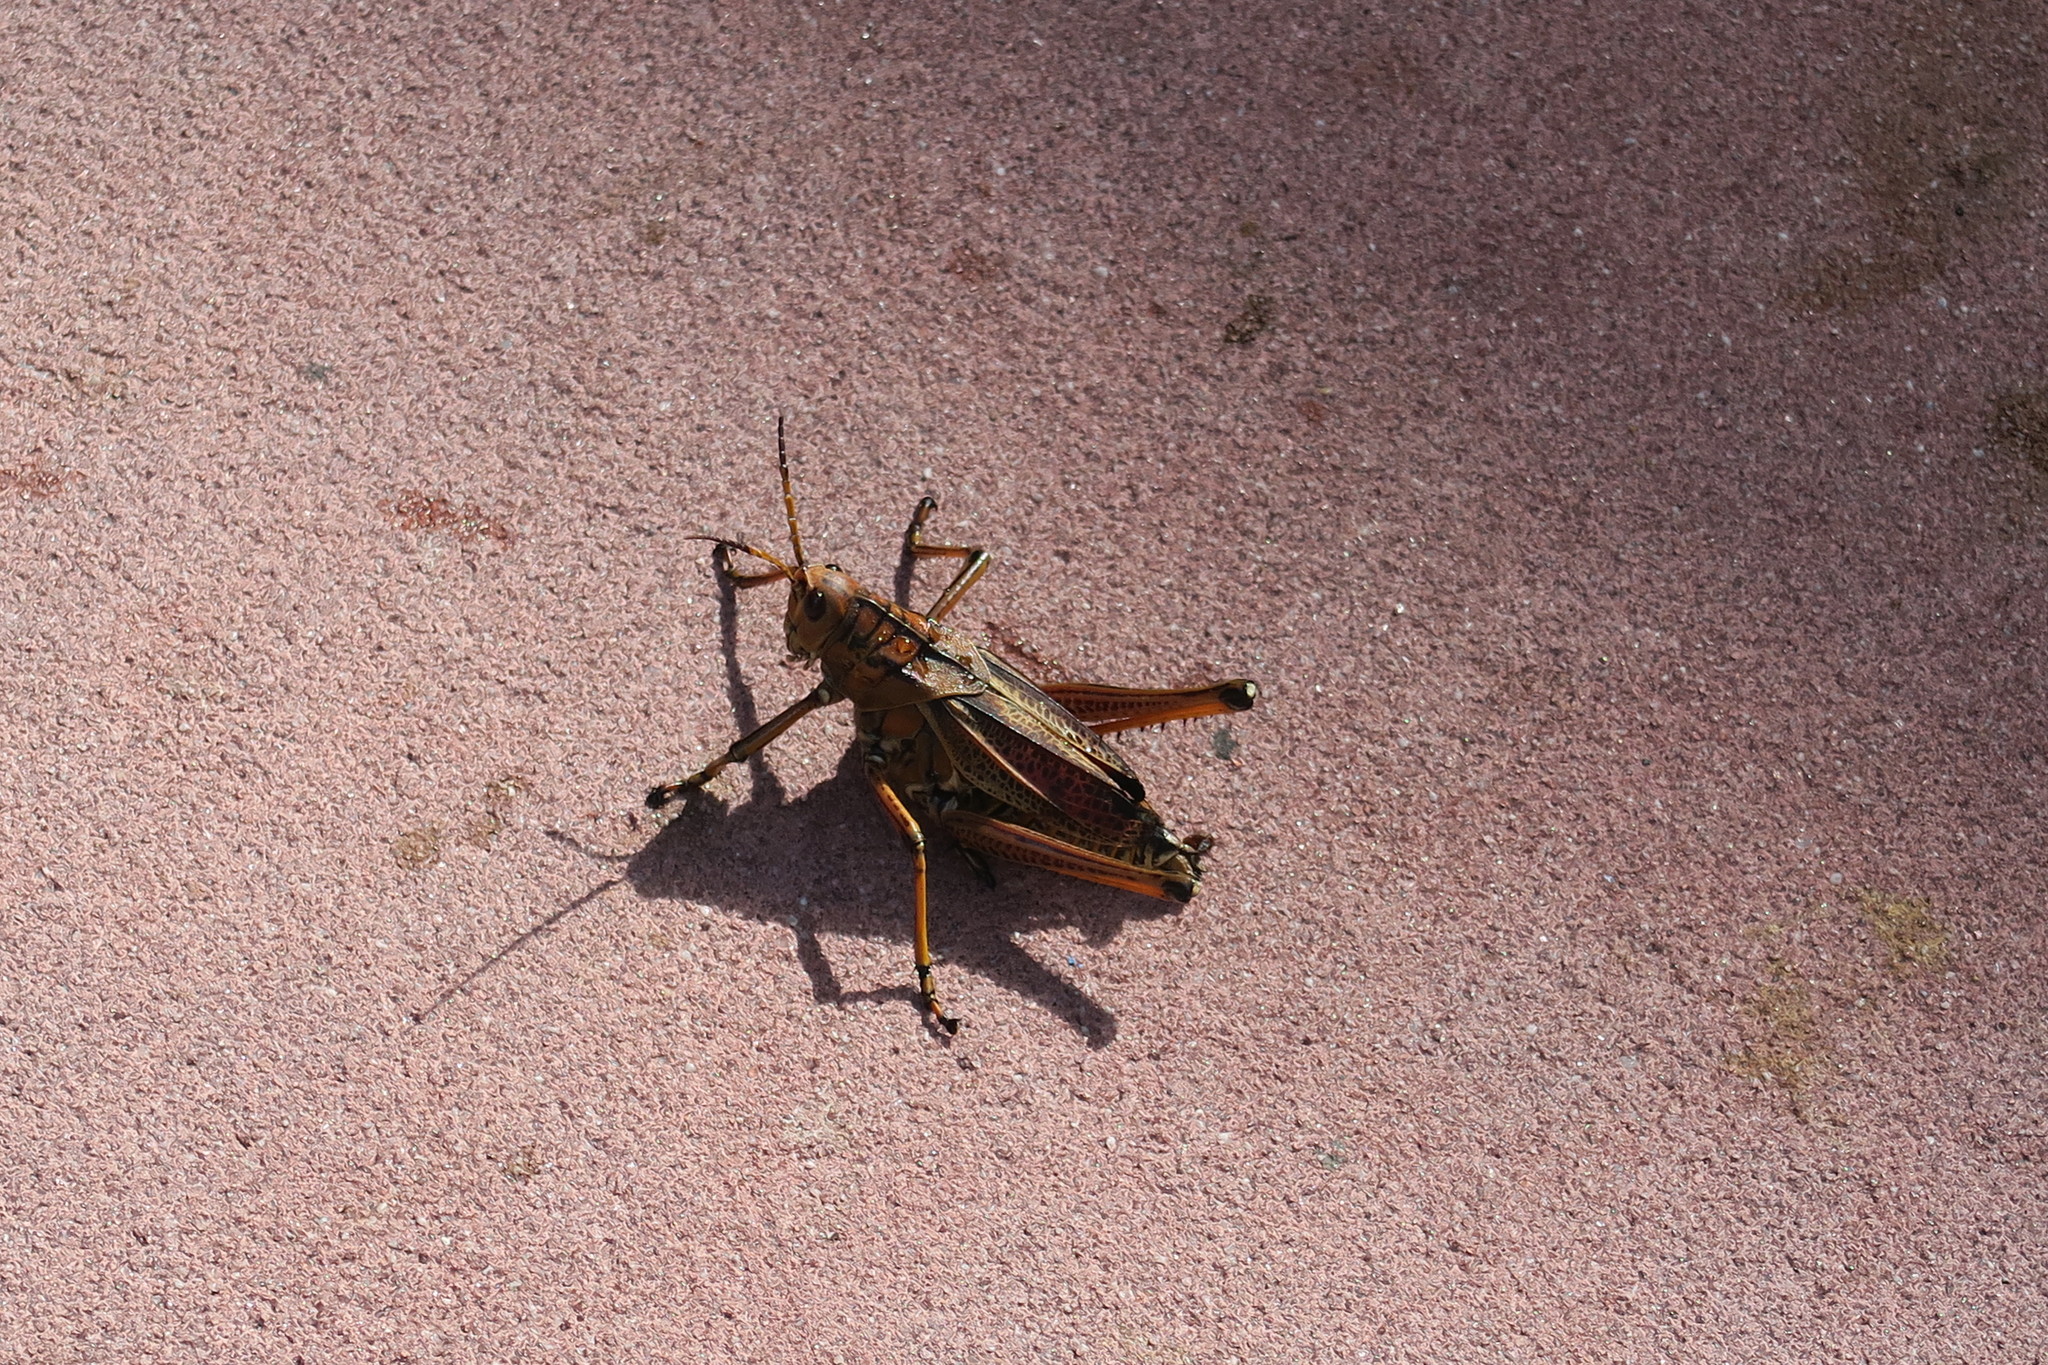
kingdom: Animalia
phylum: Arthropoda
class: Insecta
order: Orthoptera
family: Romaleidae
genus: Romalea
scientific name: Romalea microptera
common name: Eastern lubber grasshopper
